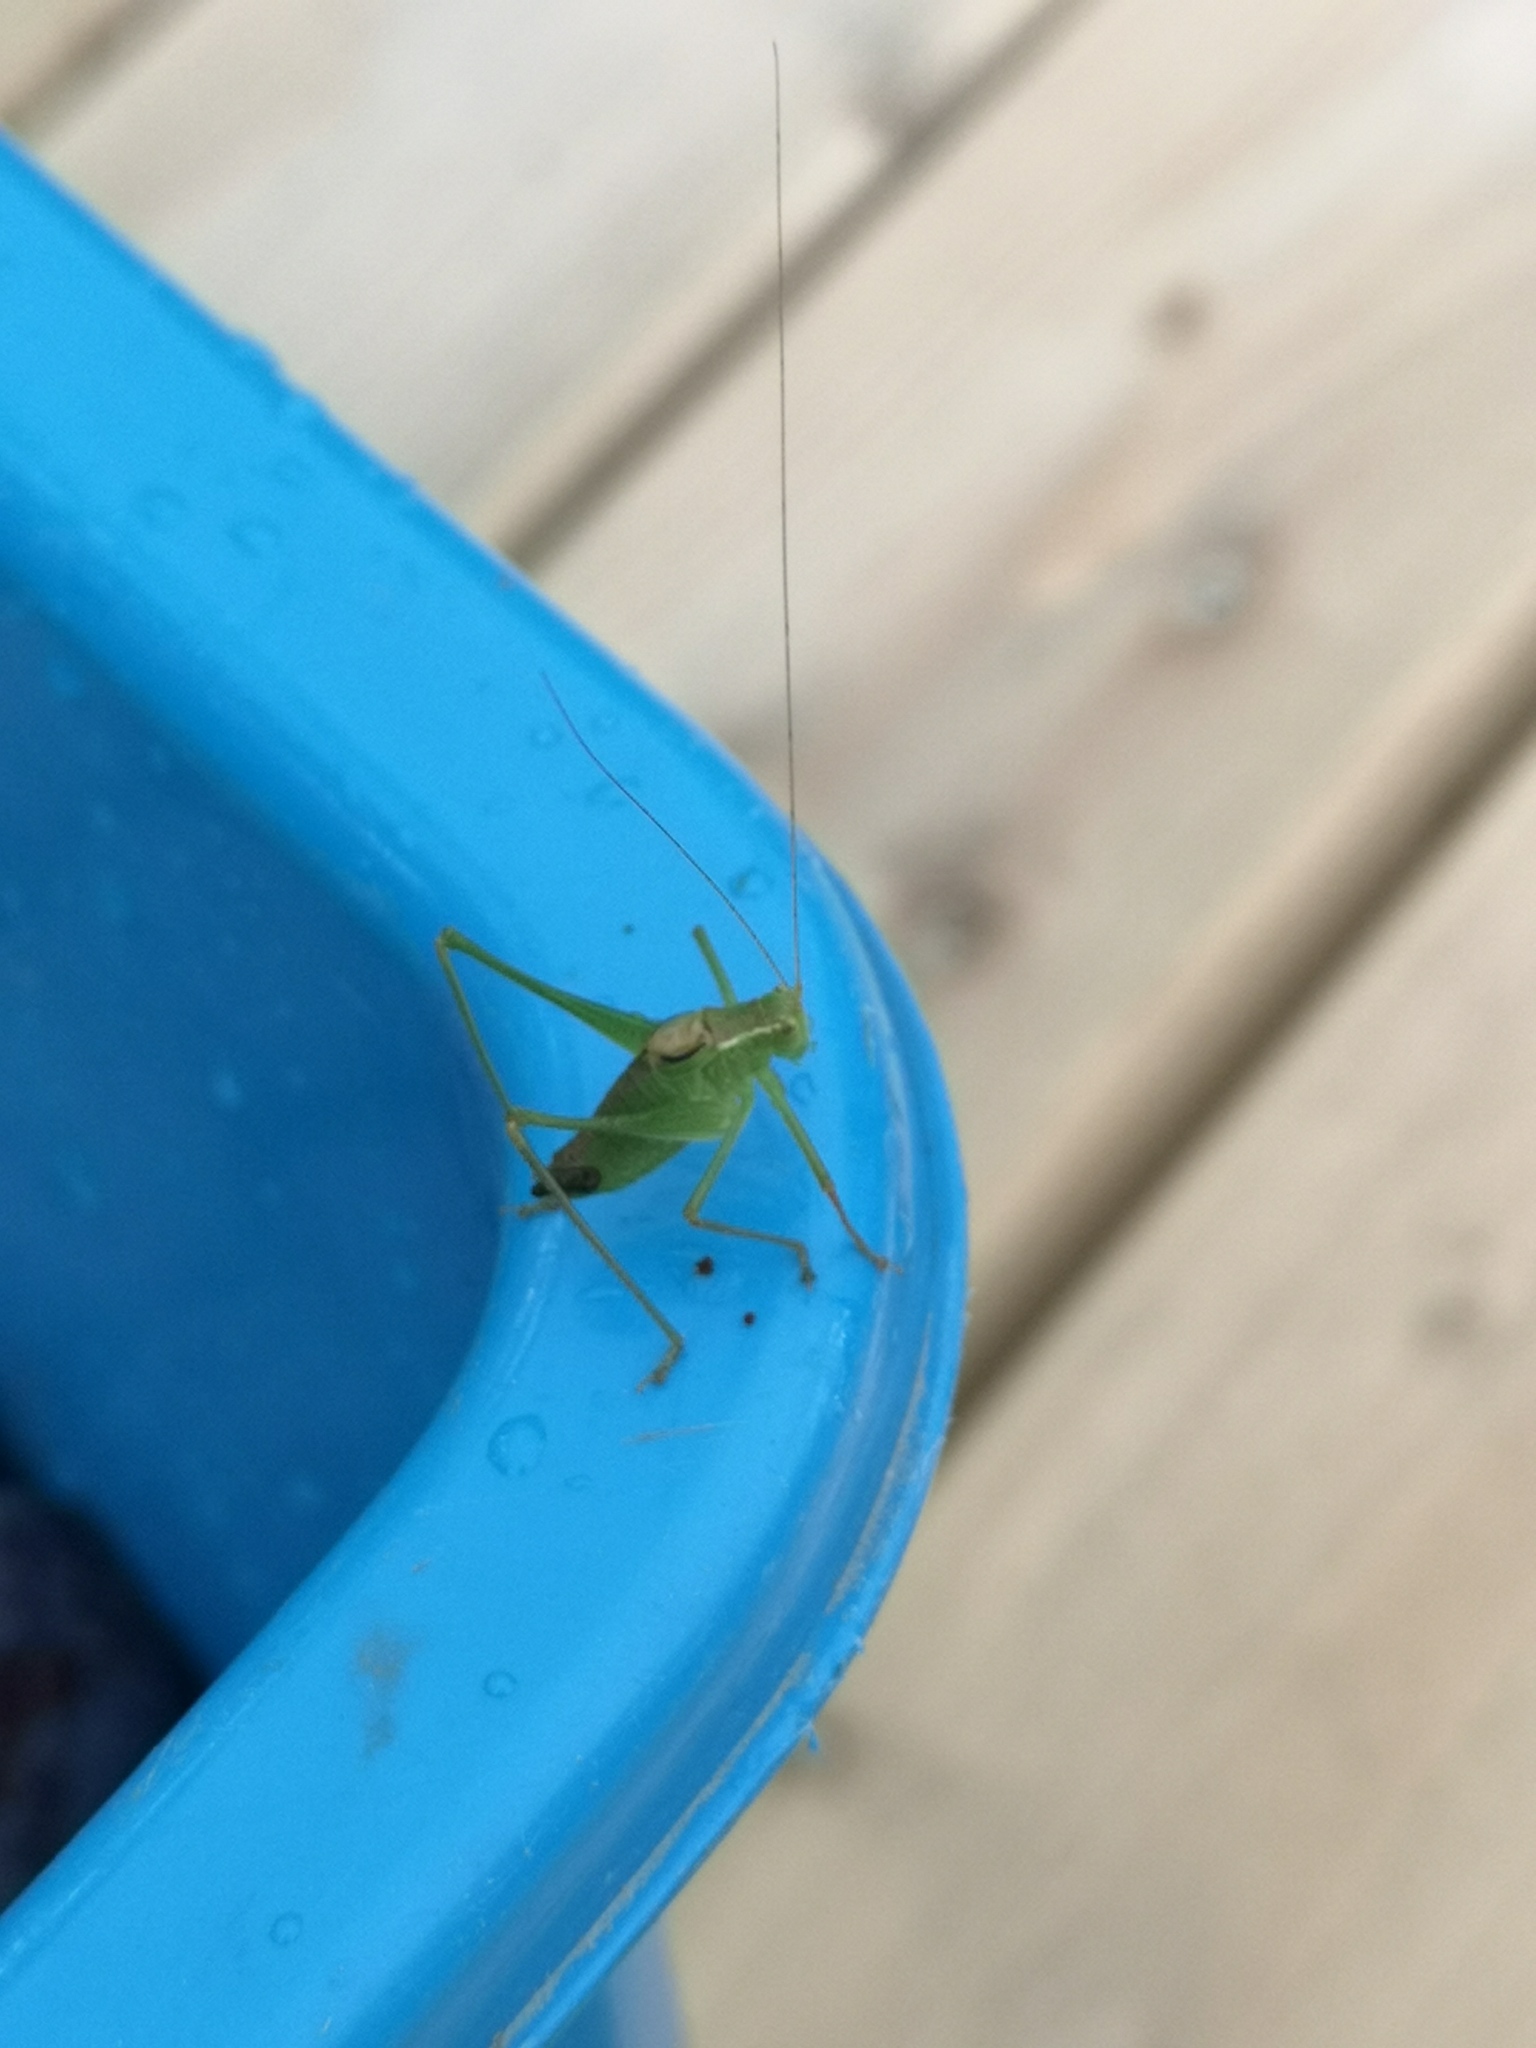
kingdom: Animalia
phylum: Arthropoda
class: Insecta
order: Orthoptera
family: Tettigoniidae
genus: Leptophyes
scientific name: Leptophyes punctatissima
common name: Speckled bush-cricket
